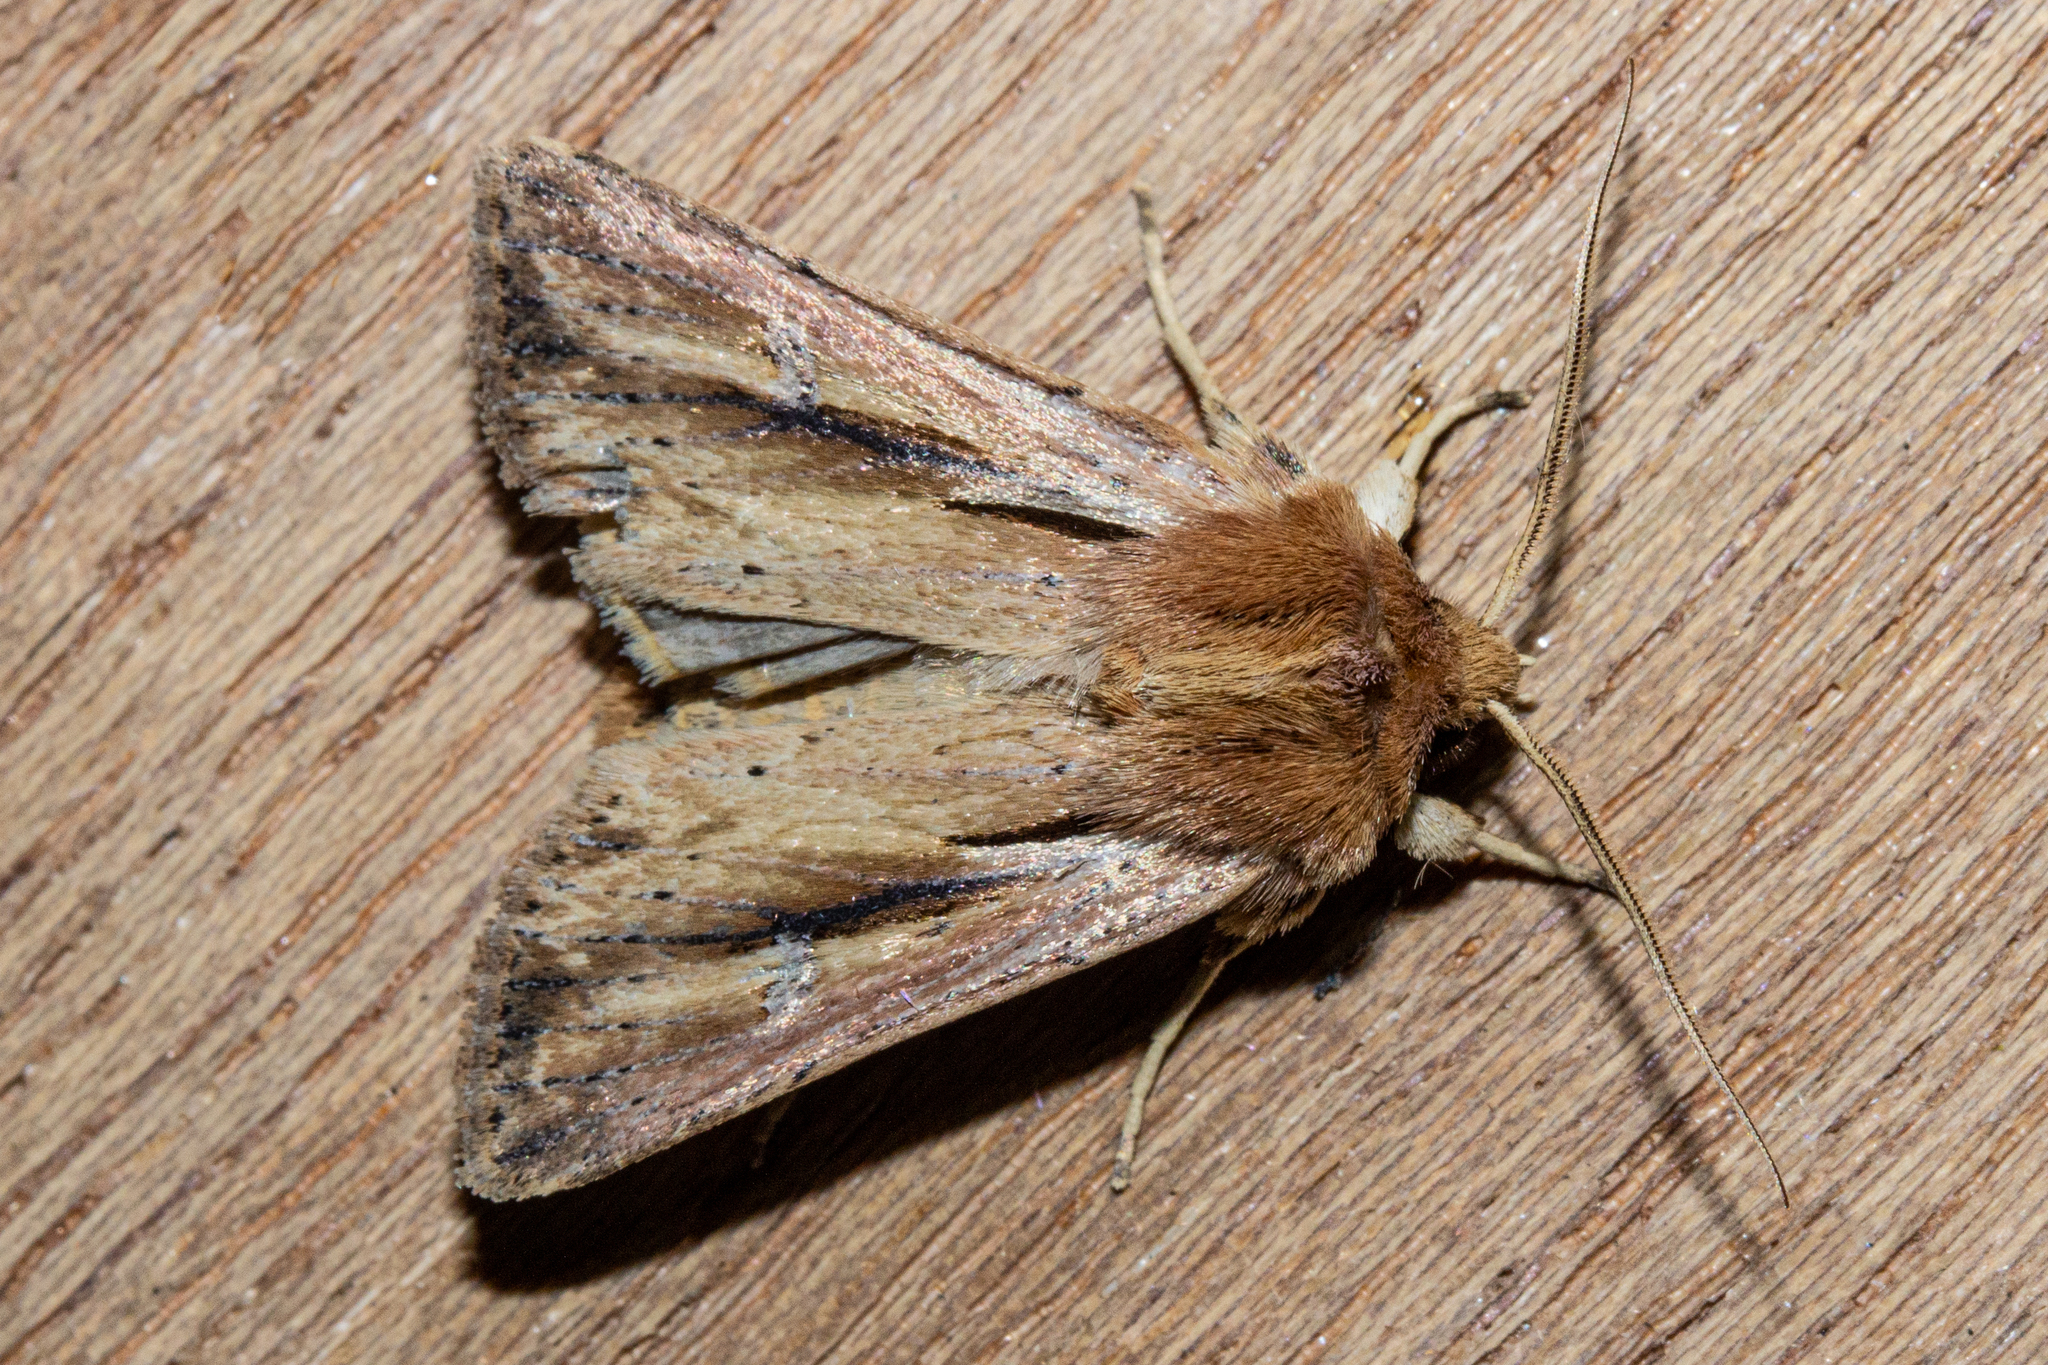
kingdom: Animalia
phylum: Arthropoda
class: Insecta
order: Lepidoptera
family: Noctuidae
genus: Ichneutica
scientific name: Ichneutica propria
